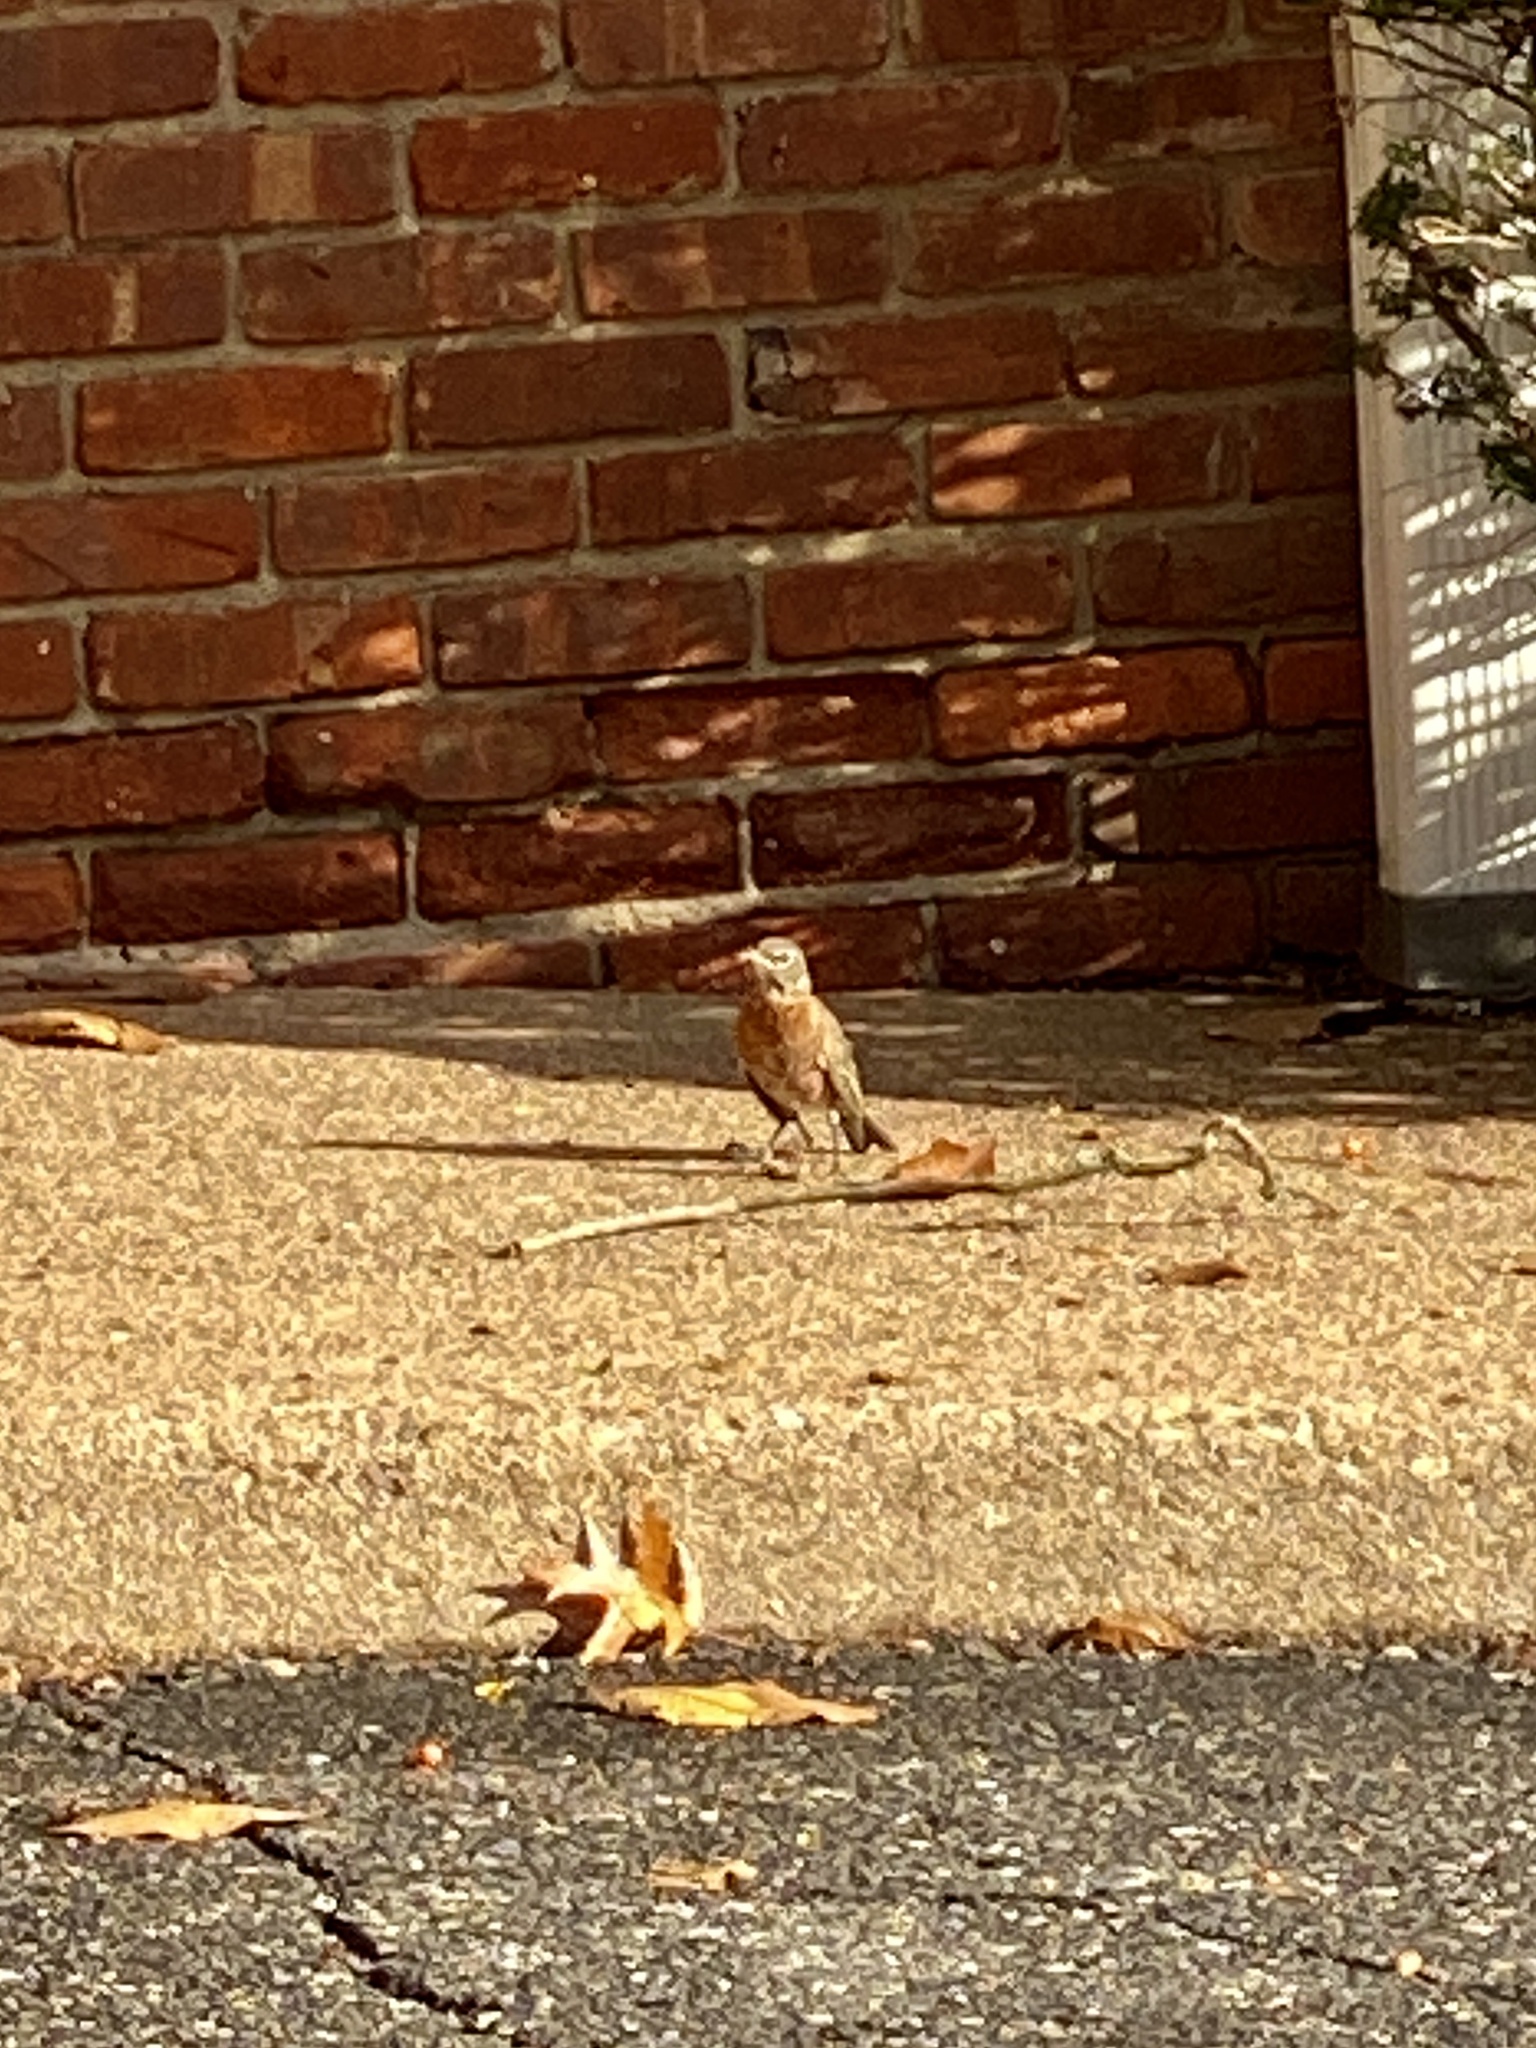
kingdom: Animalia
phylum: Chordata
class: Aves
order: Passeriformes
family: Turdidae
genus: Turdus
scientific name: Turdus migratorius
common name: American robin
